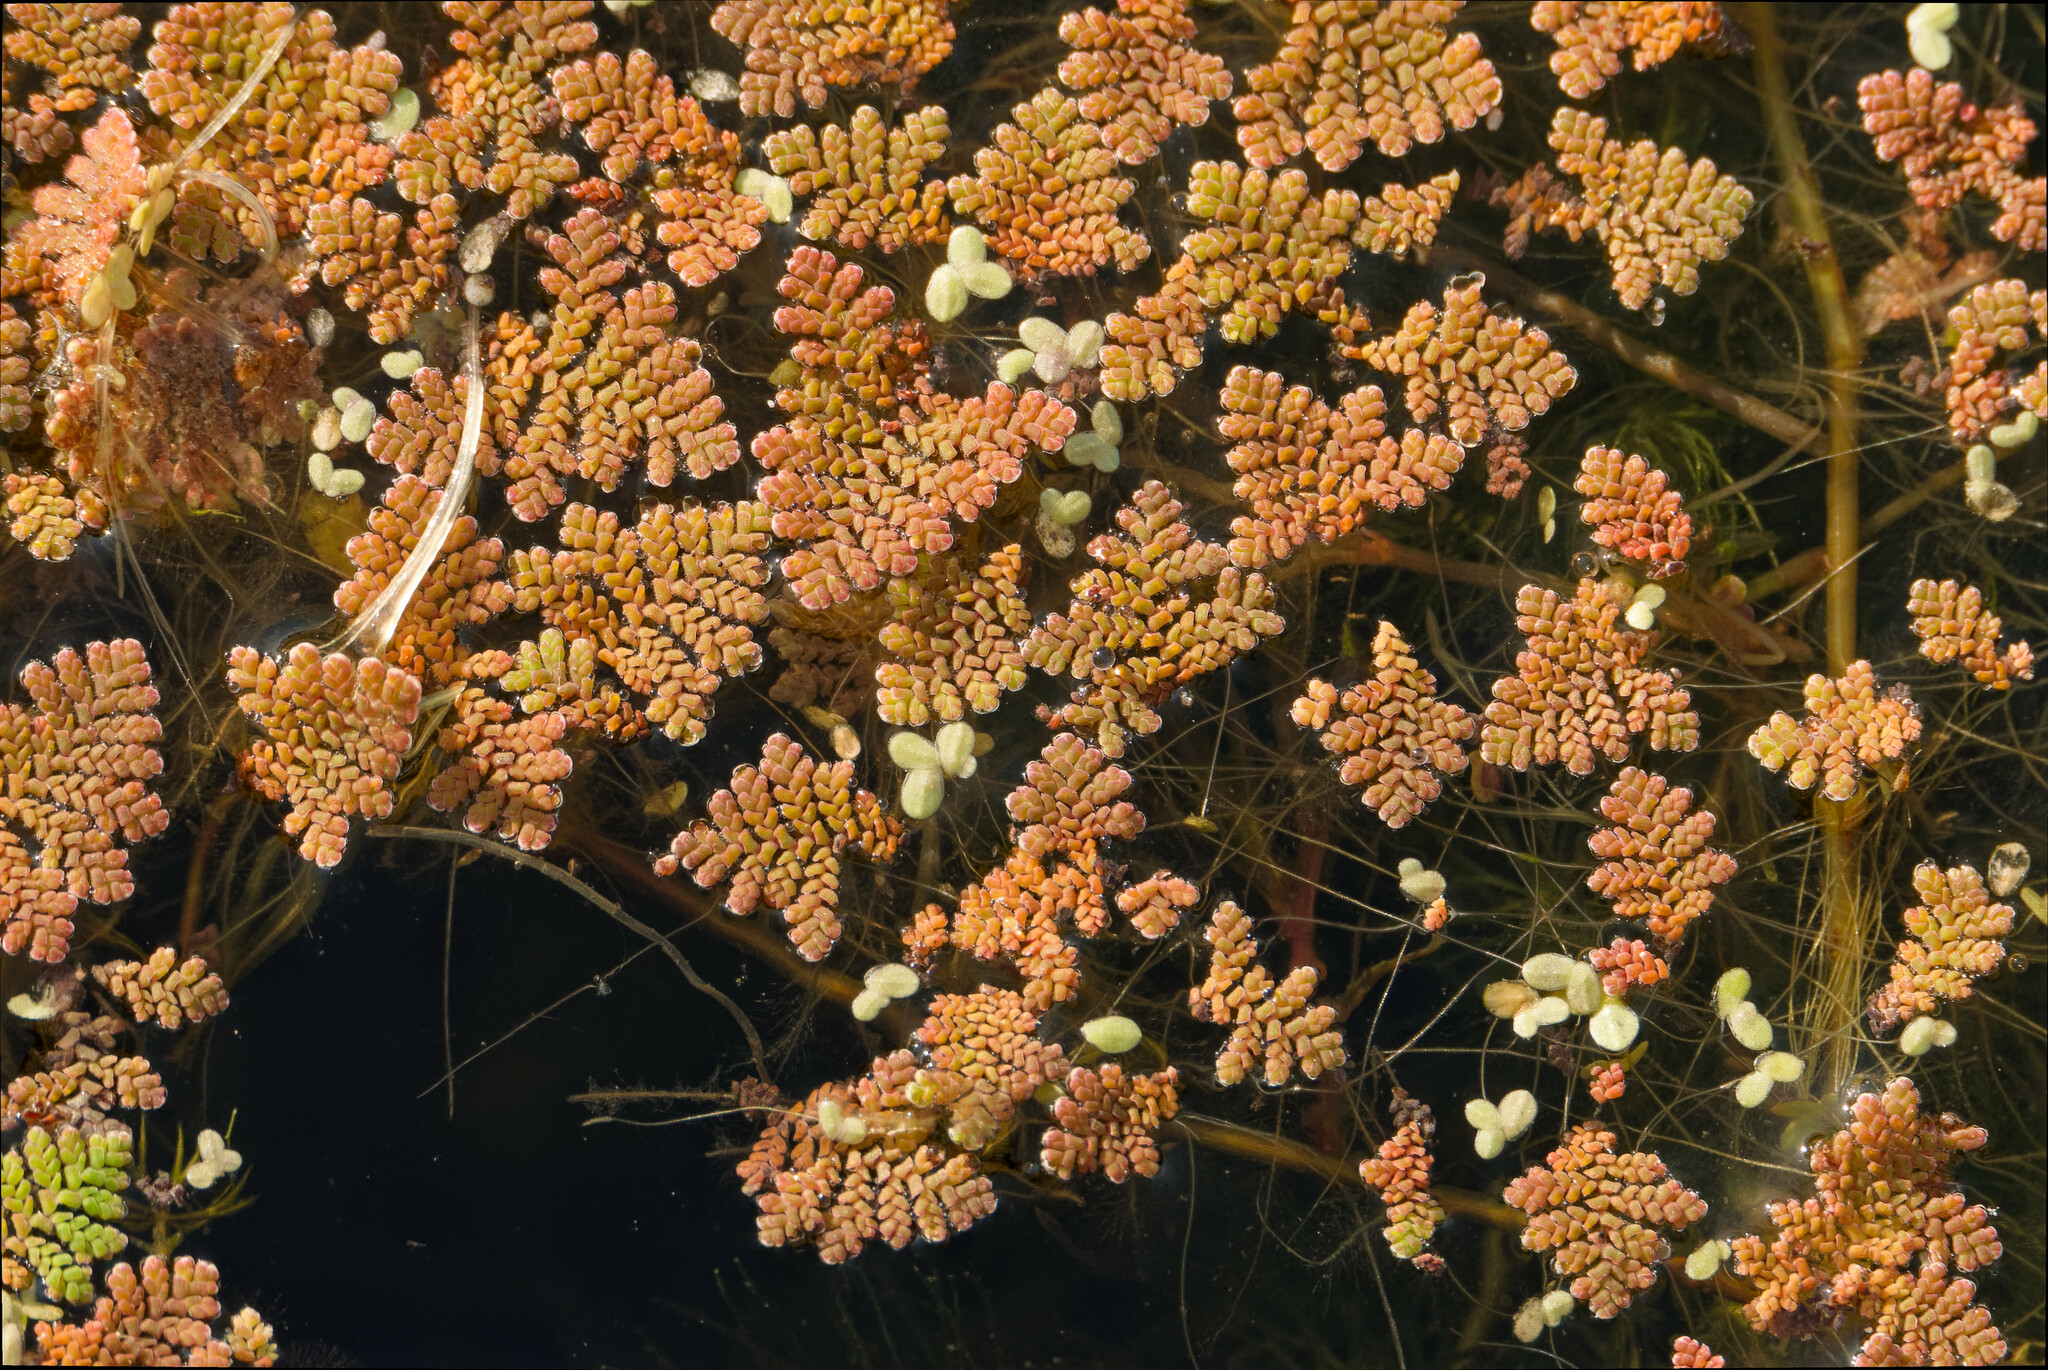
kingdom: Plantae
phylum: Tracheophyta
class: Polypodiopsida
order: Salviniales
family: Salviniaceae
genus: Azolla
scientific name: Azolla pinnata
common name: Ferny azolla
